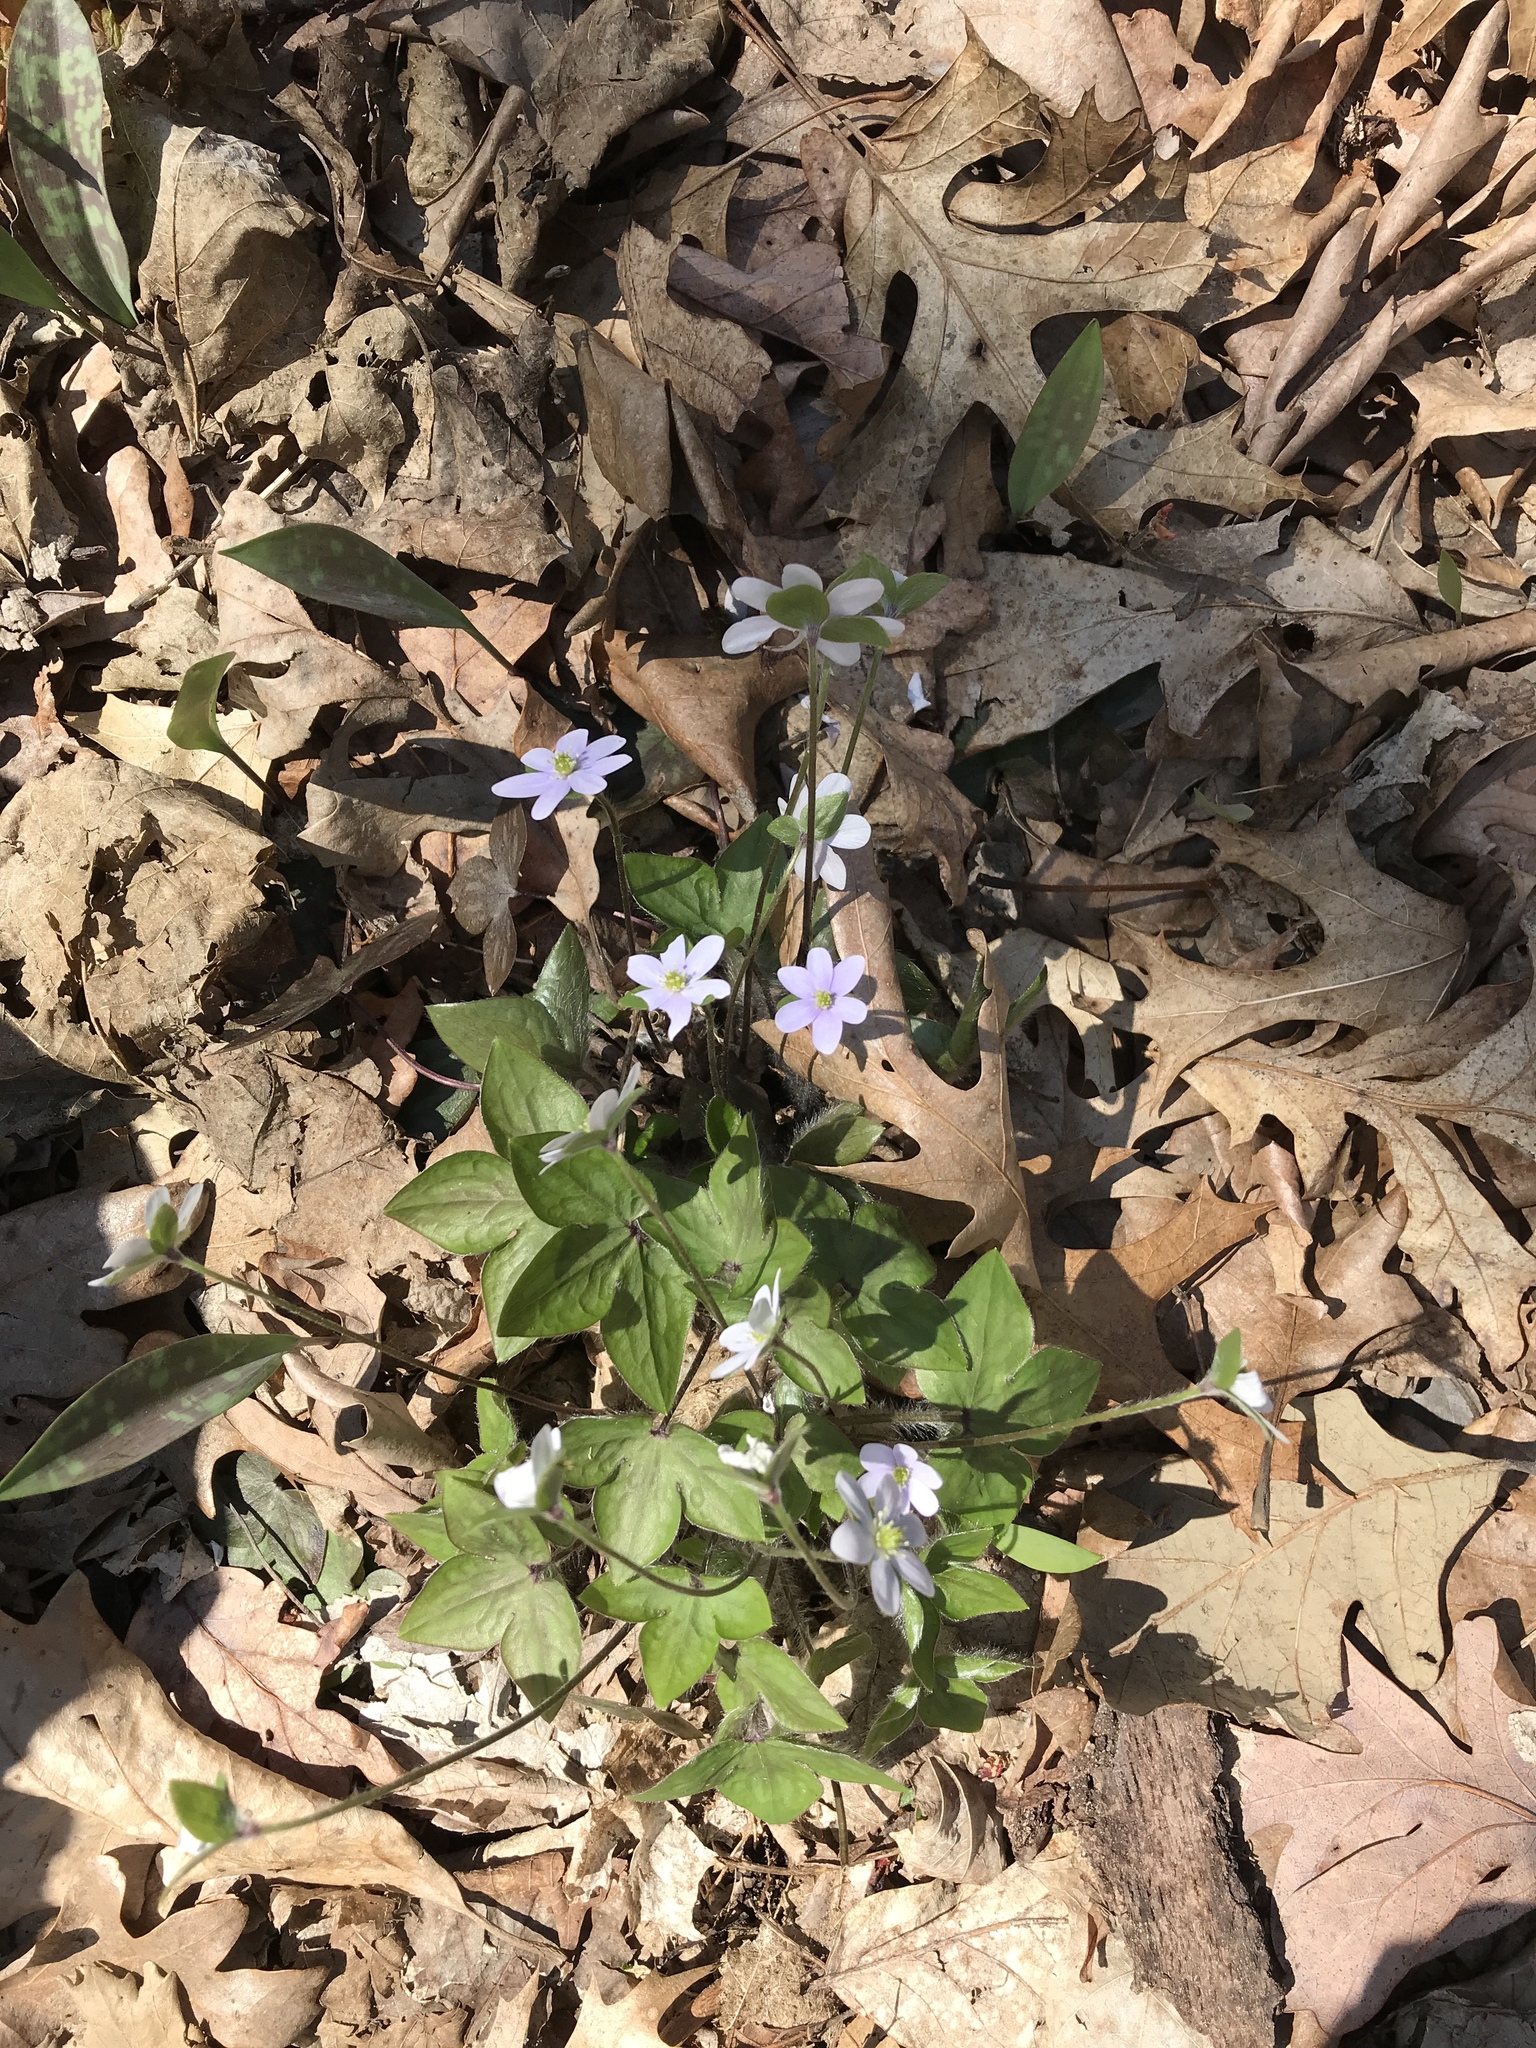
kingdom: Plantae
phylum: Tracheophyta
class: Magnoliopsida
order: Ranunculales
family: Ranunculaceae
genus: Hepatica
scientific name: Hepatica acutiloba
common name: Sharp-lobed hepatica
